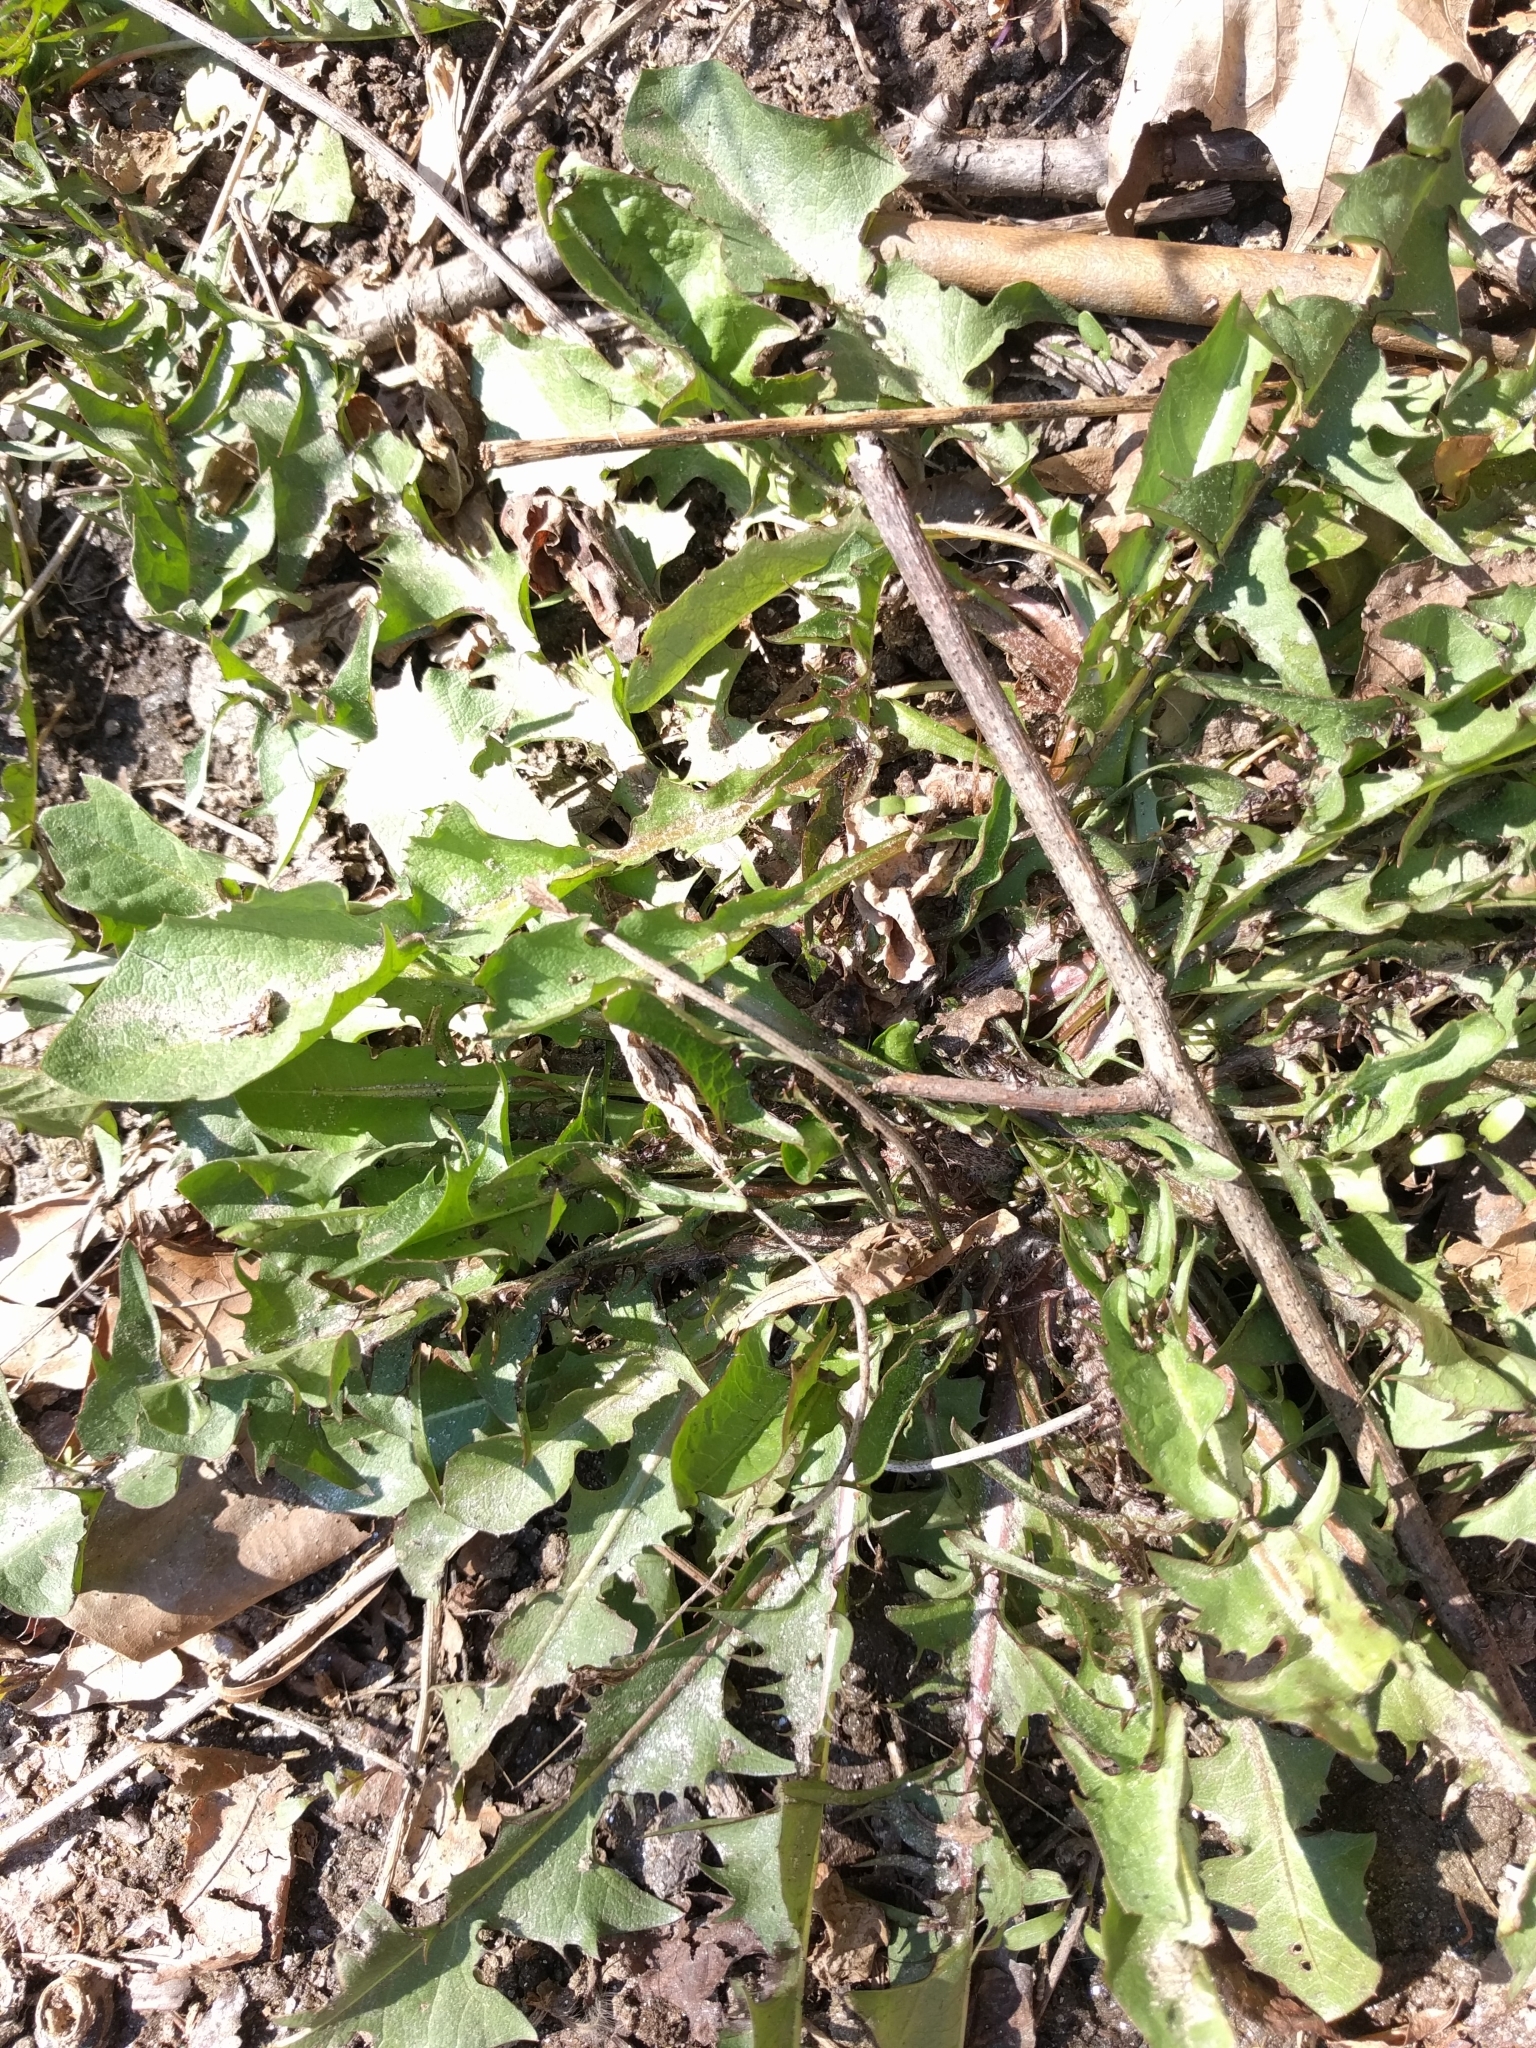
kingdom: Plantae
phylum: Tracheophyta
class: Magnoliopsida
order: Asterales
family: Asteraceae
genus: Taraxacum
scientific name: Taraxacum
